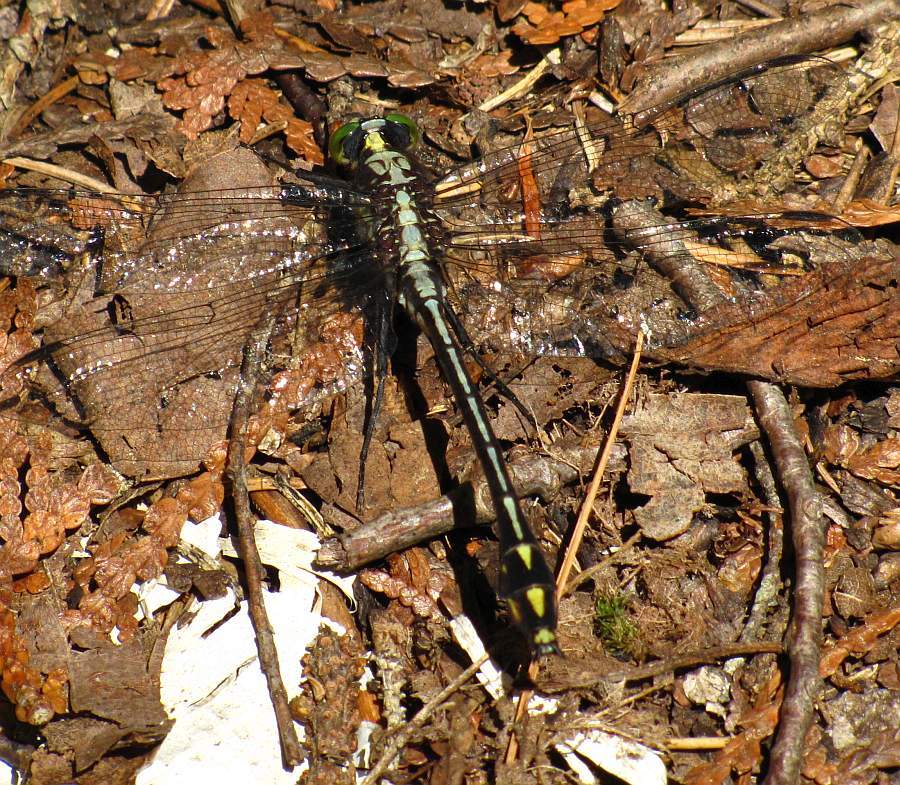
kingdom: Animalia
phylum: Arthropoda
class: Insecta
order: Odonata
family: Gomphidae
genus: Dromogomphus
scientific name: Dromogomphus spinosus
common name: Black-shouldered spinyleg
